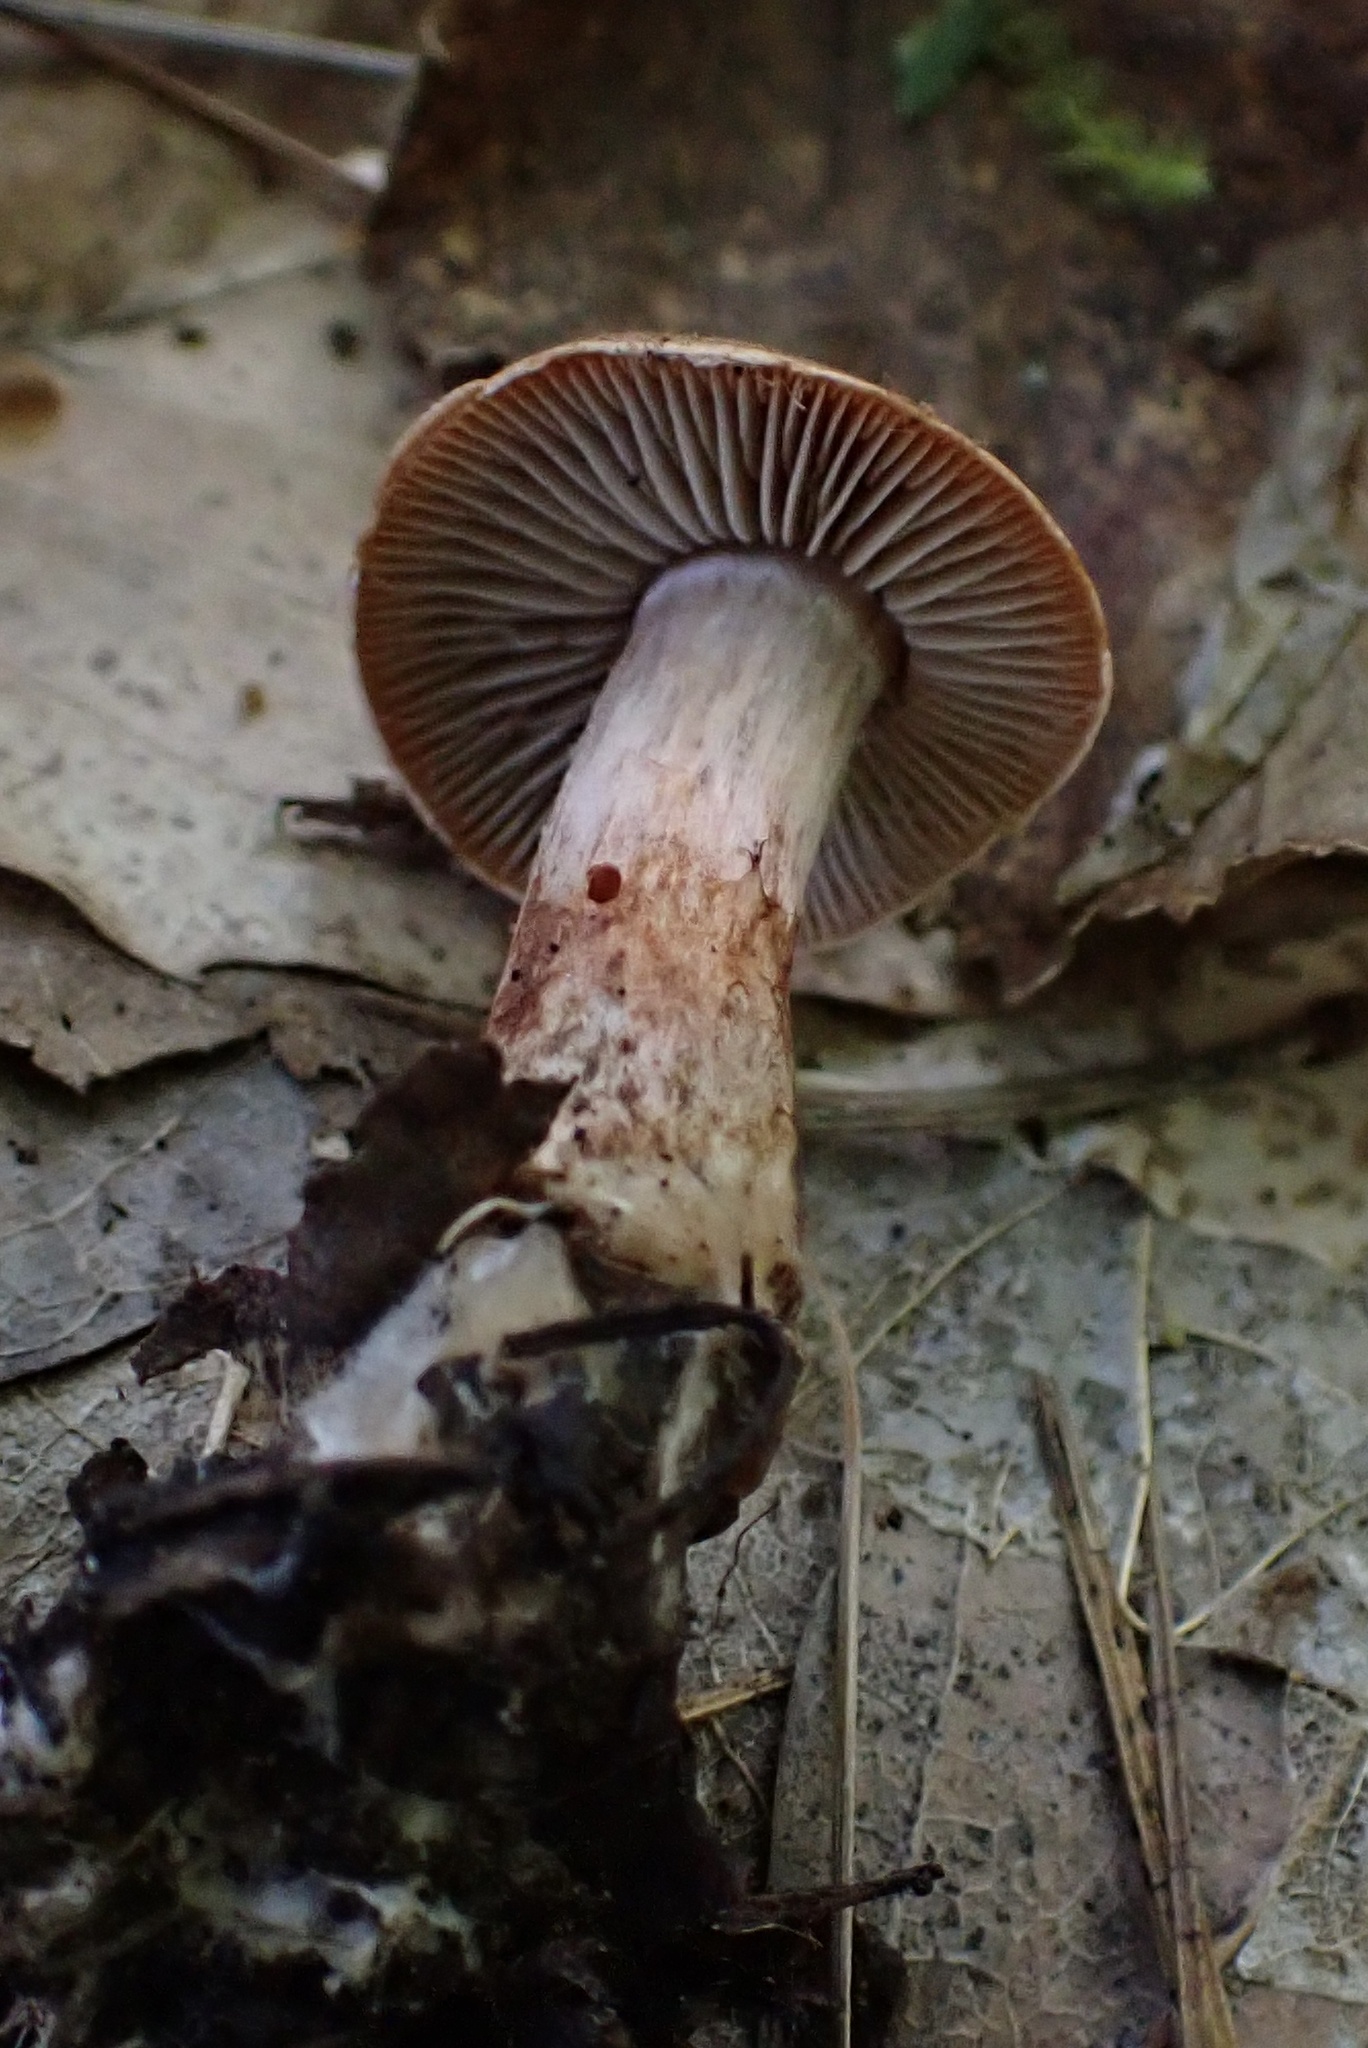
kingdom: Fungi
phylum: Basidiomycota
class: Agaricomycetes
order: Agaricales
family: Cortinariaceae
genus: Cortinarius
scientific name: Cortinarius bolaris
